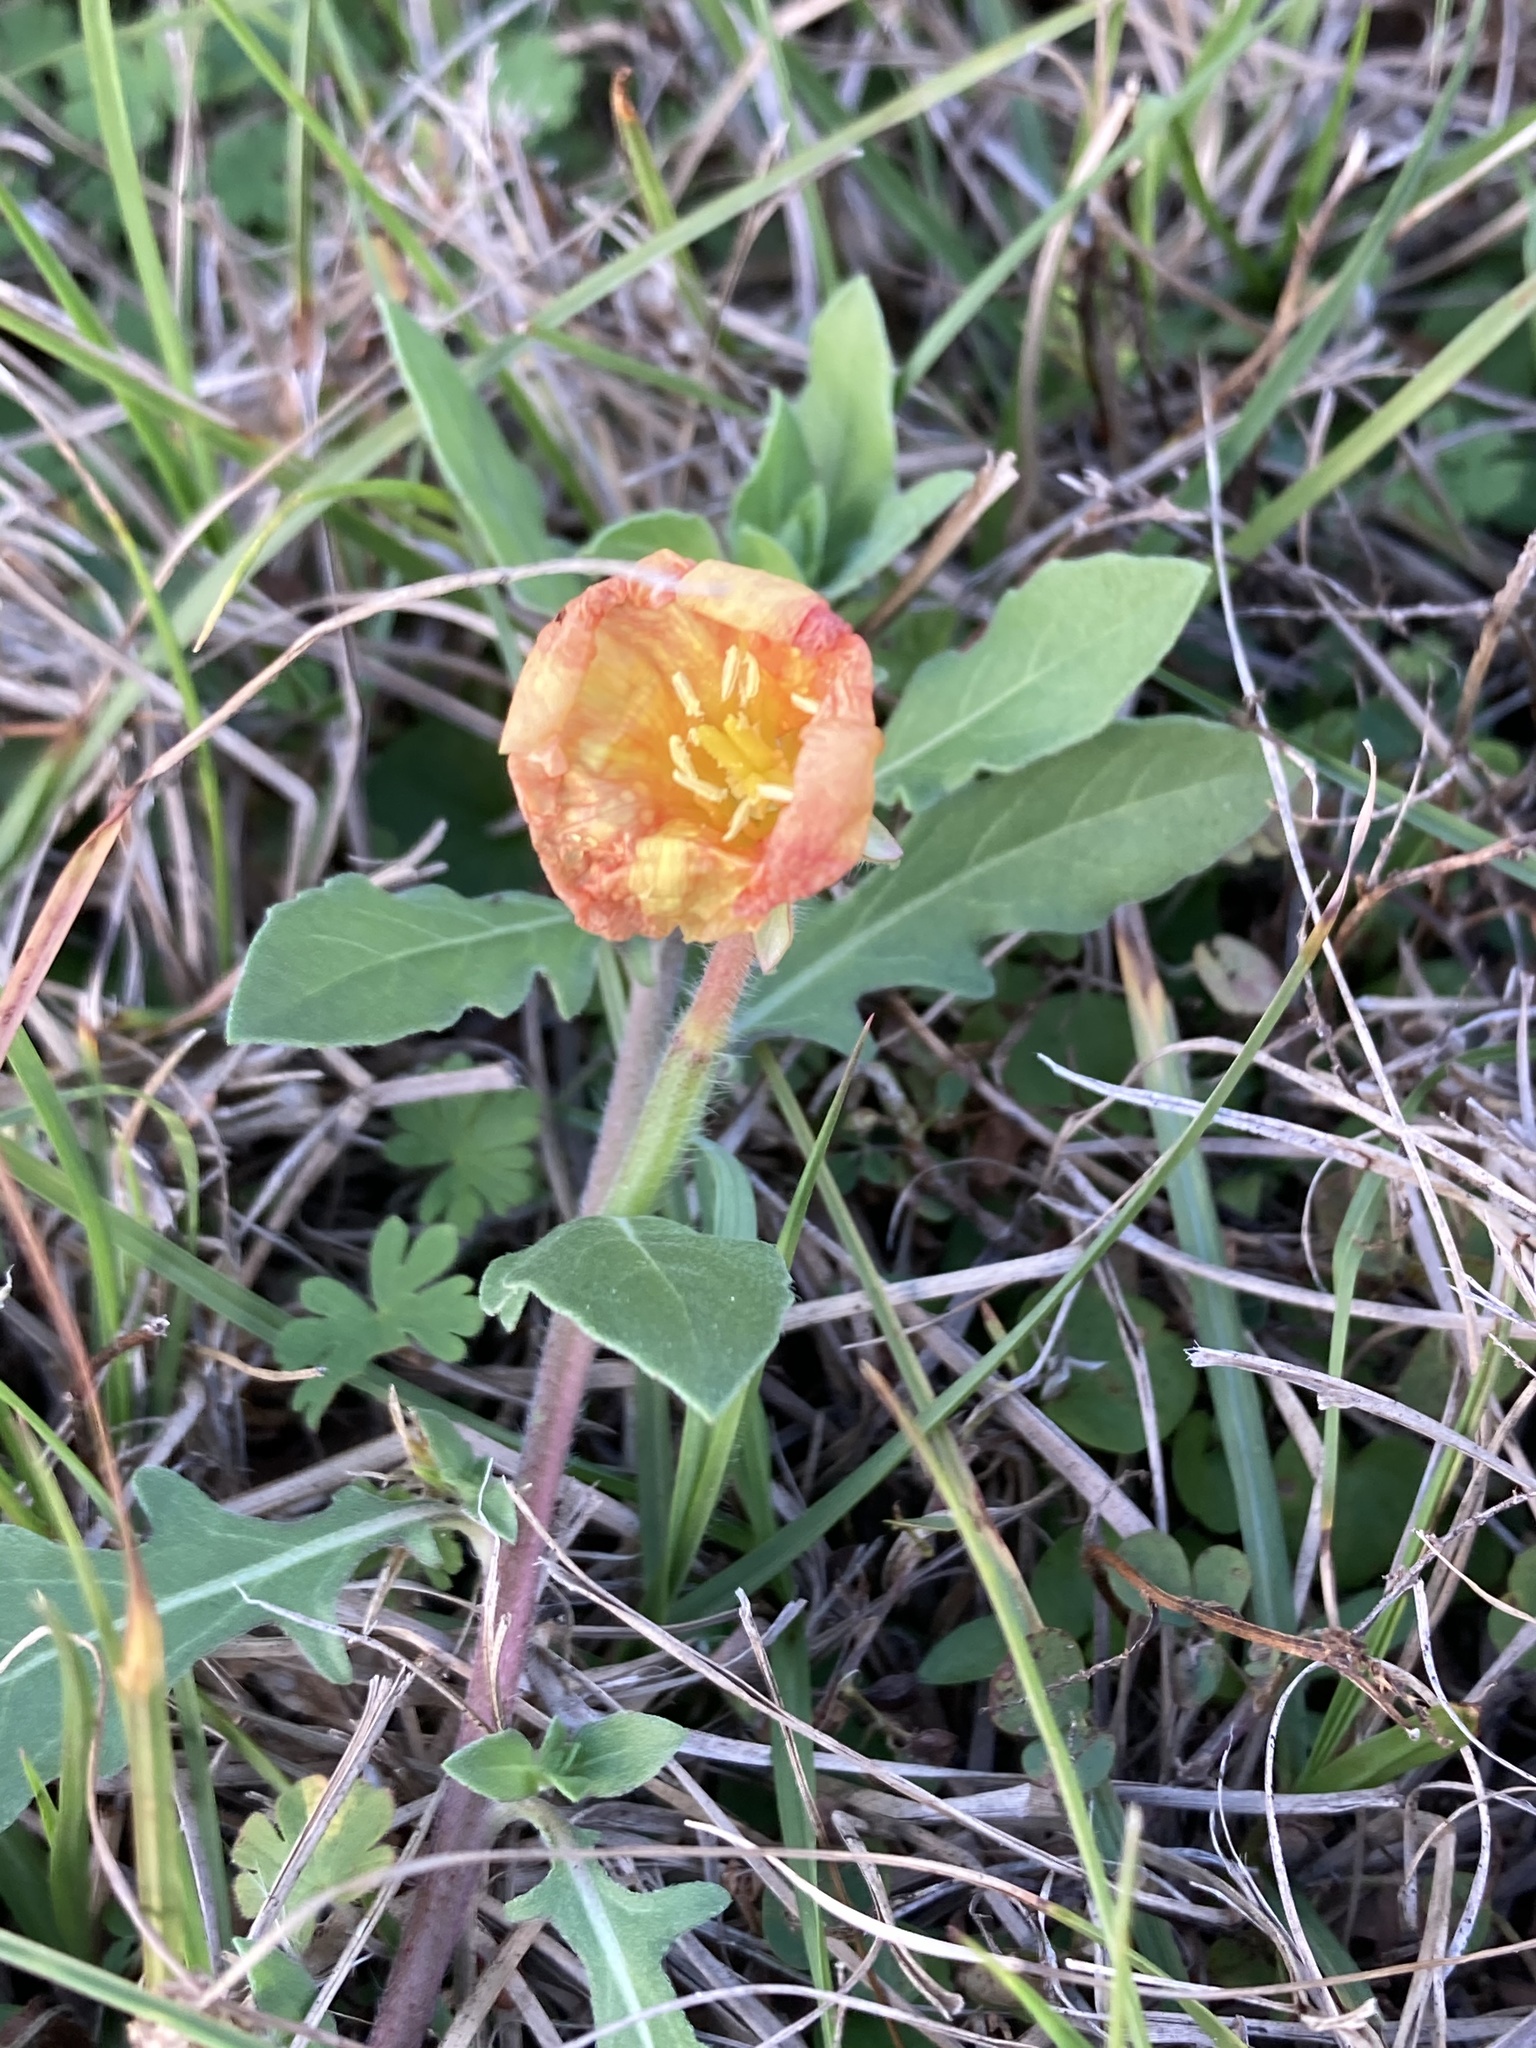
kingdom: Plantae
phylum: Tracheophyta
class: Magnoliopsida
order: Myrtales
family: Onagraceae
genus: Oenothera
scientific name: Oenothera laciniata
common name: Cut-leaved evening-primrose
